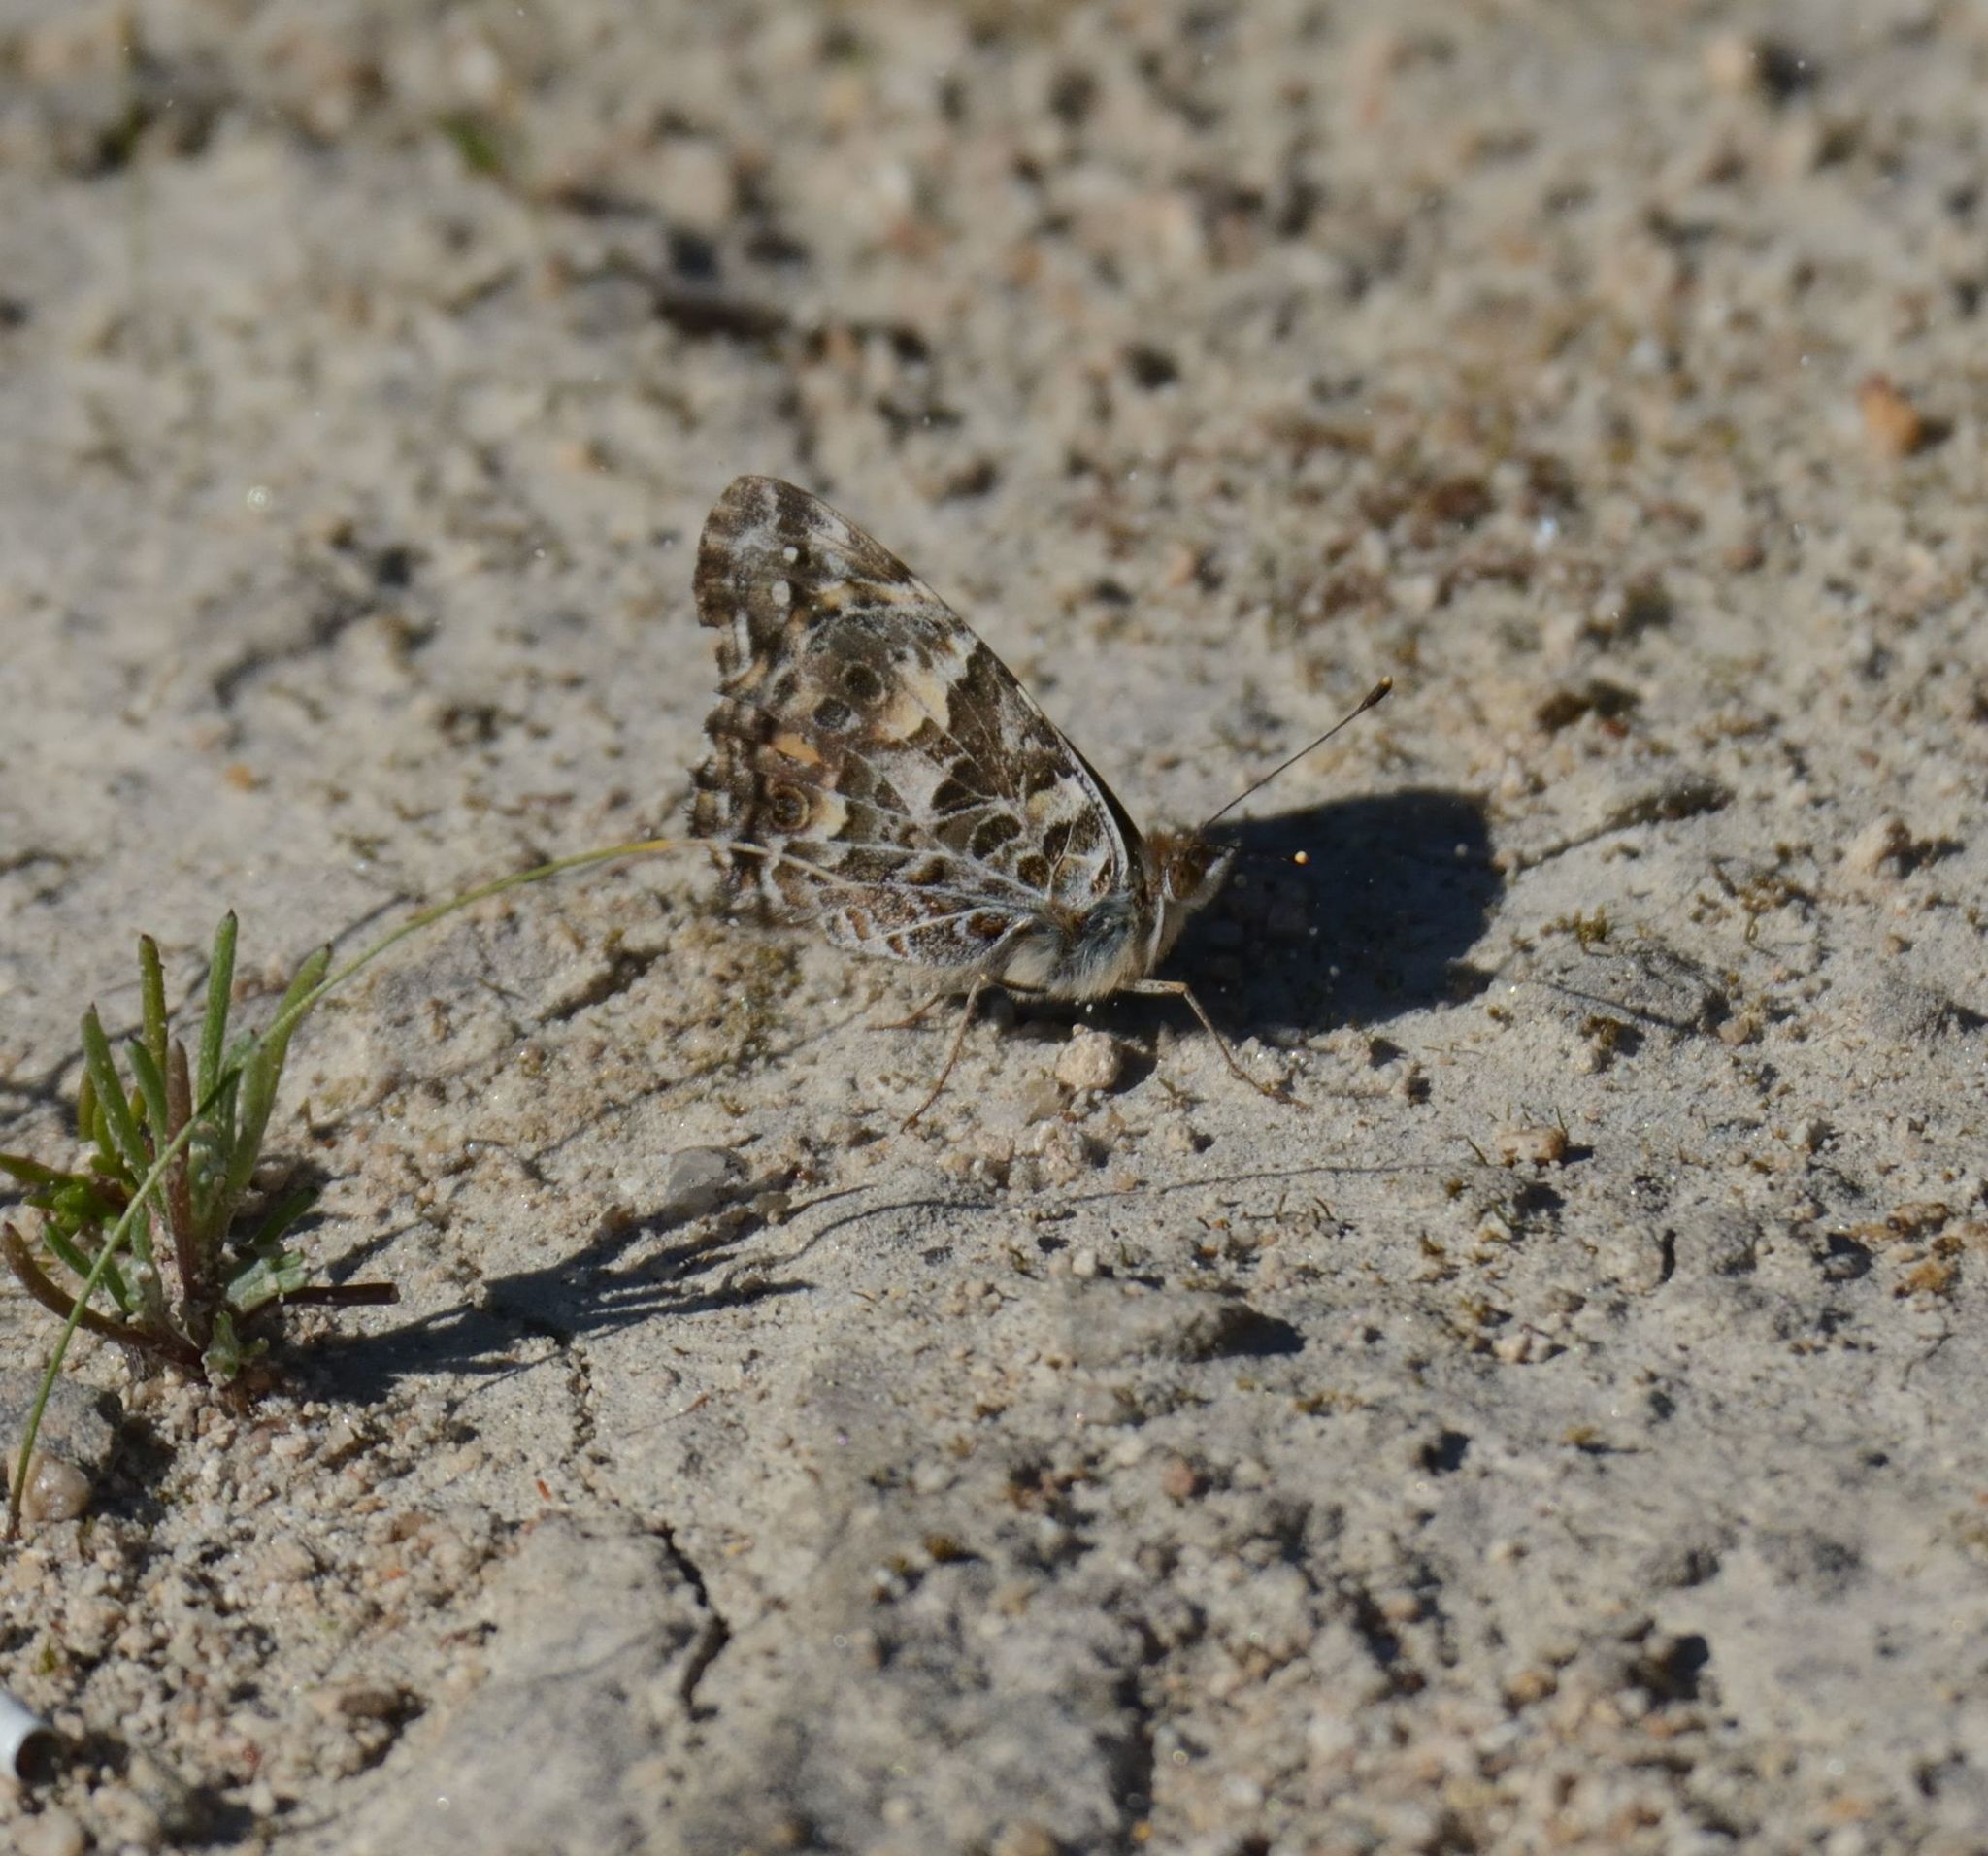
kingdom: Animalia
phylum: Arthropoda
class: Insecta
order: Lepidoptera
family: Nymphalidae
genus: Vanessa
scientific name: Vanessa kershawi
